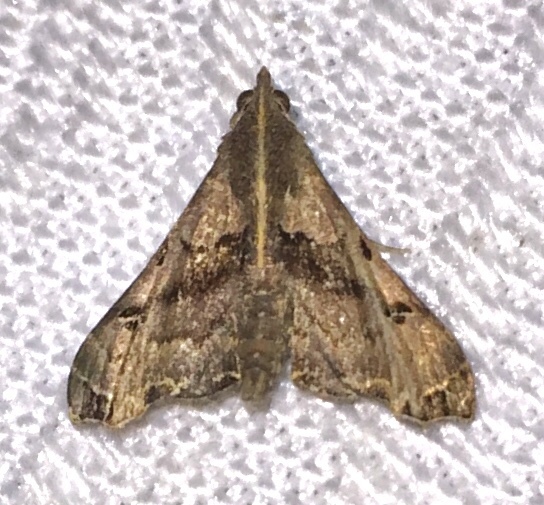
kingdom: Animalia
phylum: Arthropoda
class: Insecta
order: Lepidoptera
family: Erebidae
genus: Palthis
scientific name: Palthis asopialis
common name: Faint-spotted palthis moth
